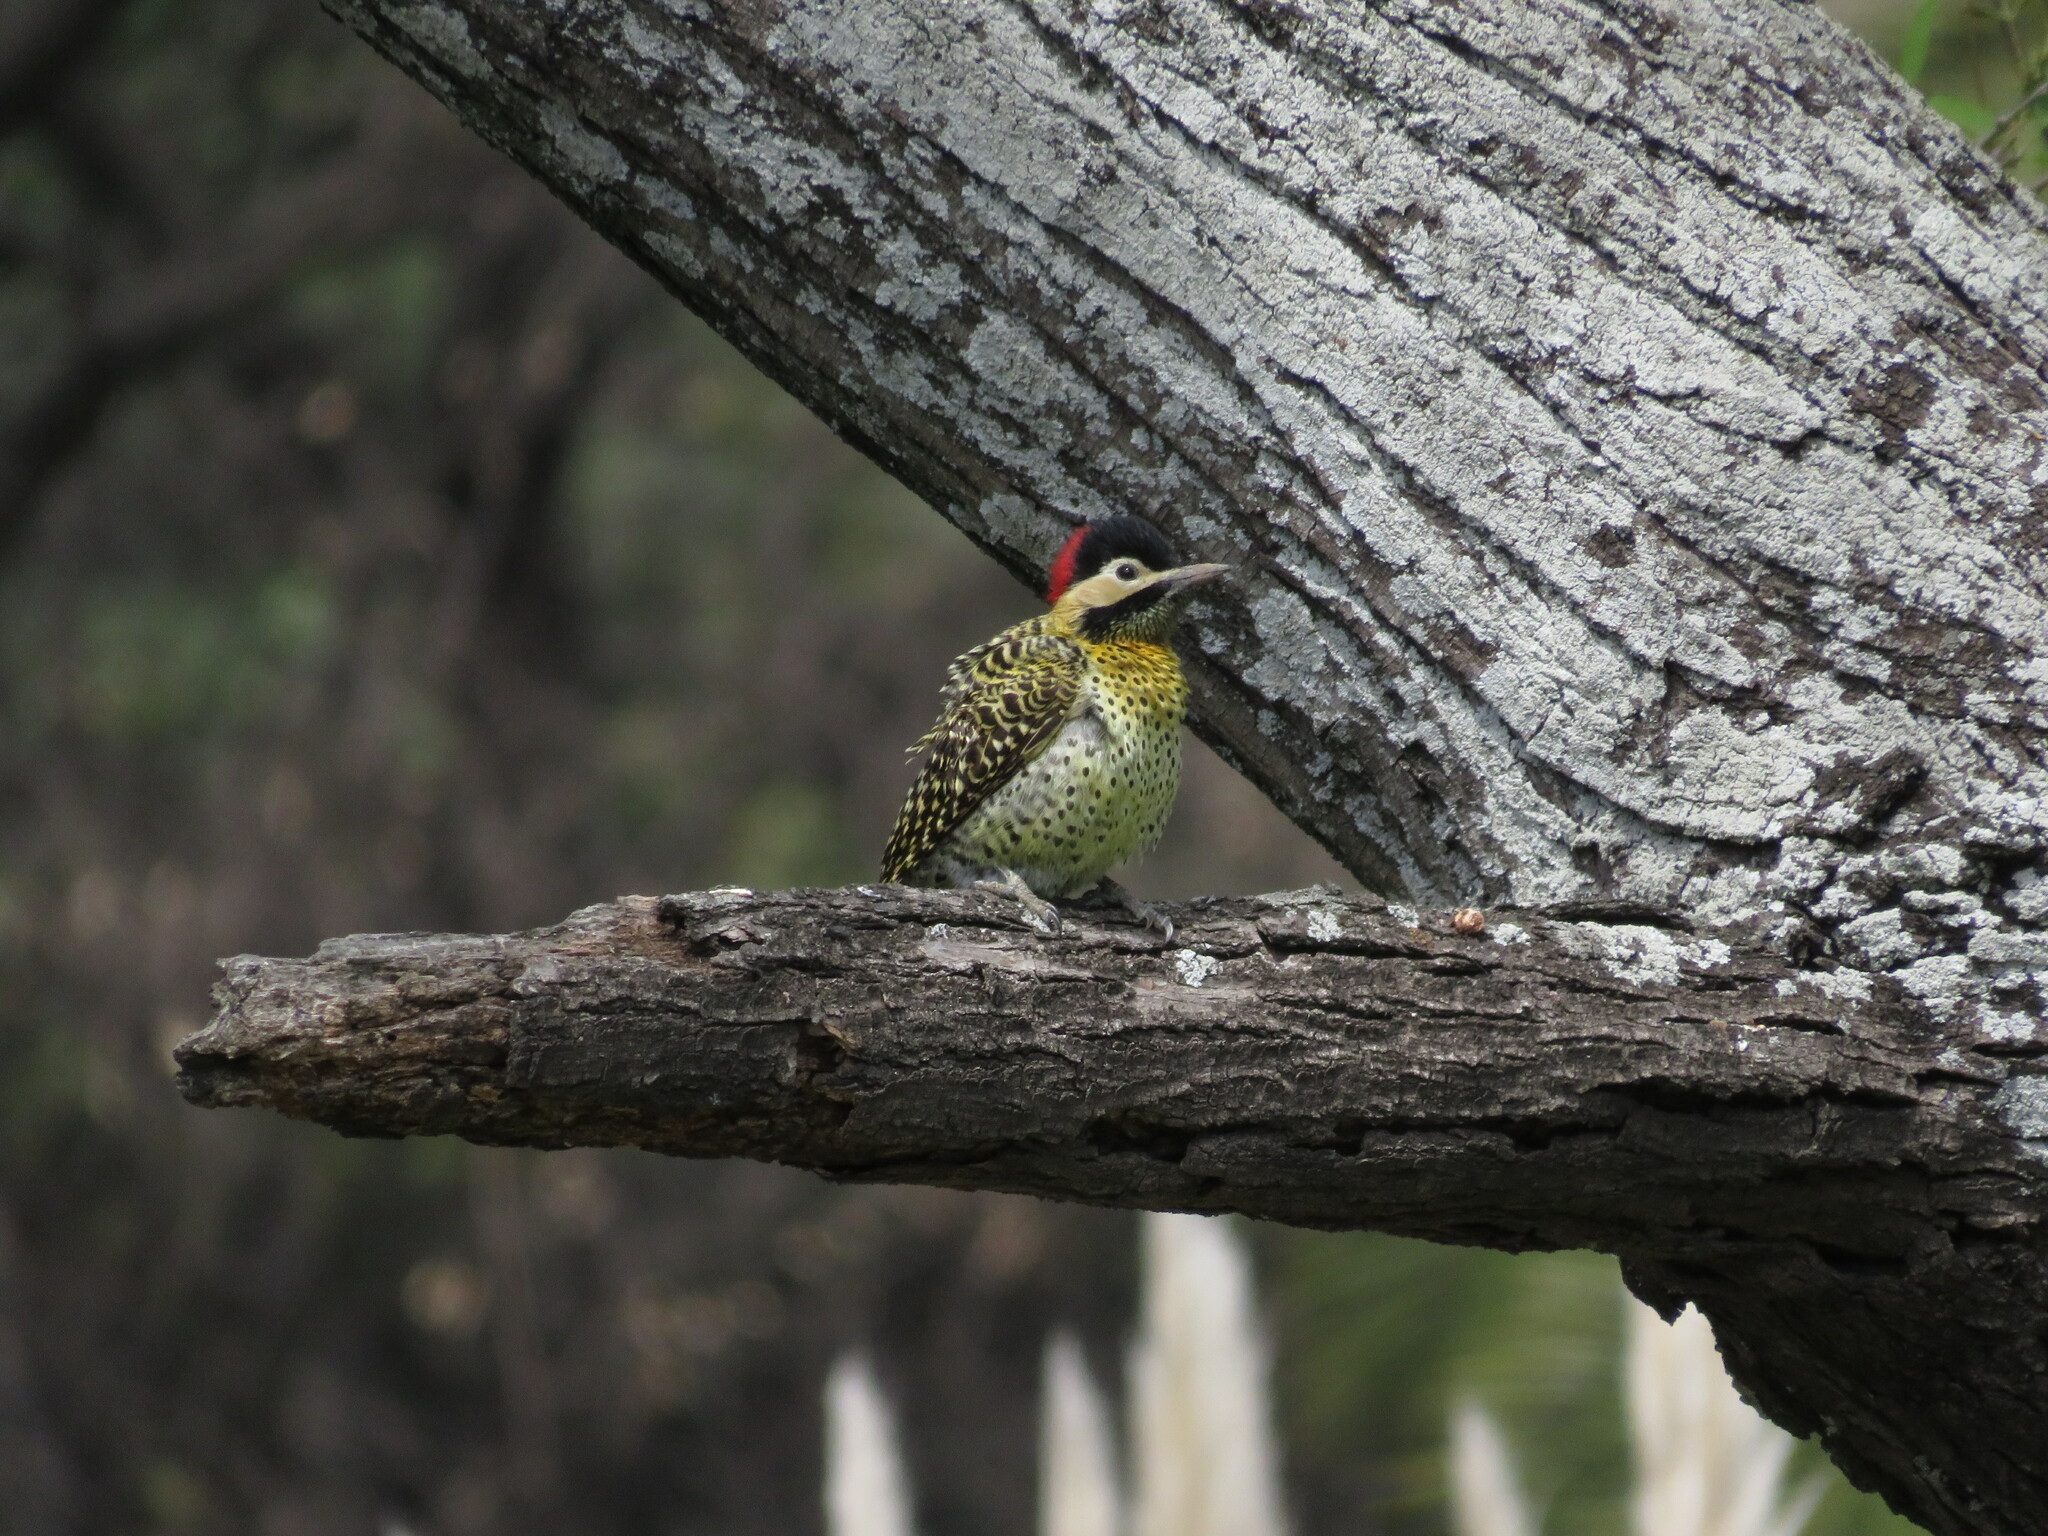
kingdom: Animalia
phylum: Chordata
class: Aves
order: Piciformes
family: Picidae
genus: Colaptes
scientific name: Colaptes melanochloros
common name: Green-barred woodpecker
